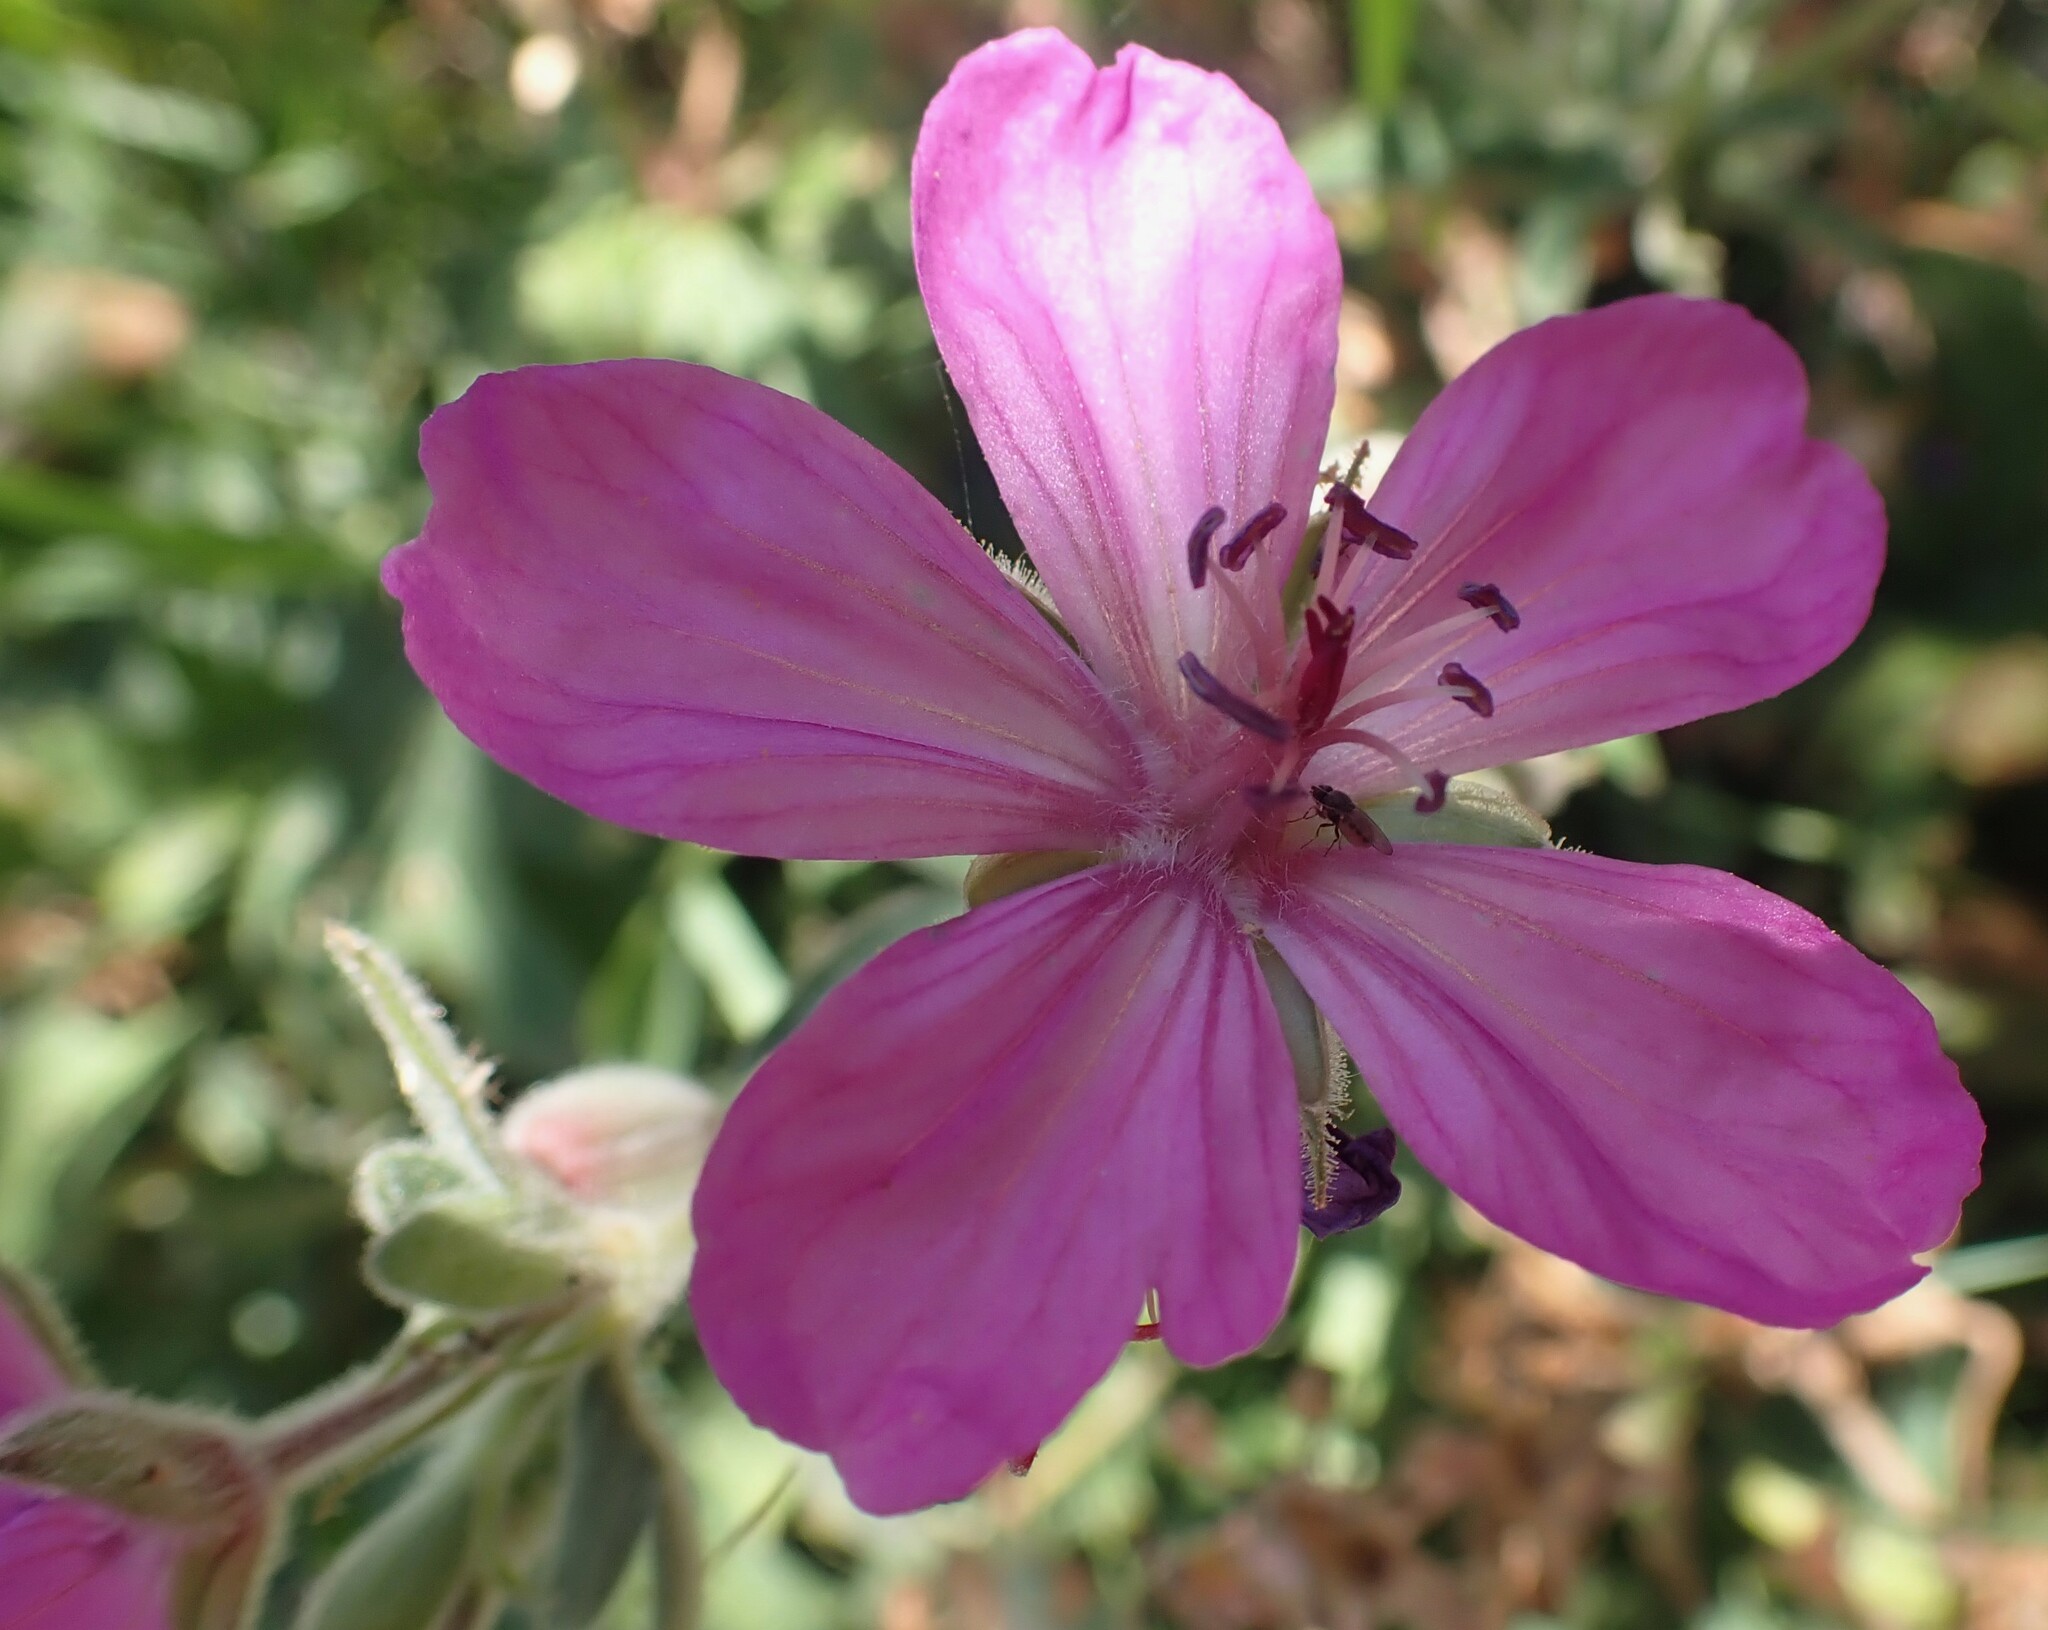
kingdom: Plantae
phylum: Tracheophyta
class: Magnoliopsida
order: Geraniales
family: Geraniaceae
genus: Geranium
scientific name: Geranium viscosissimum
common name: Purple geranium
